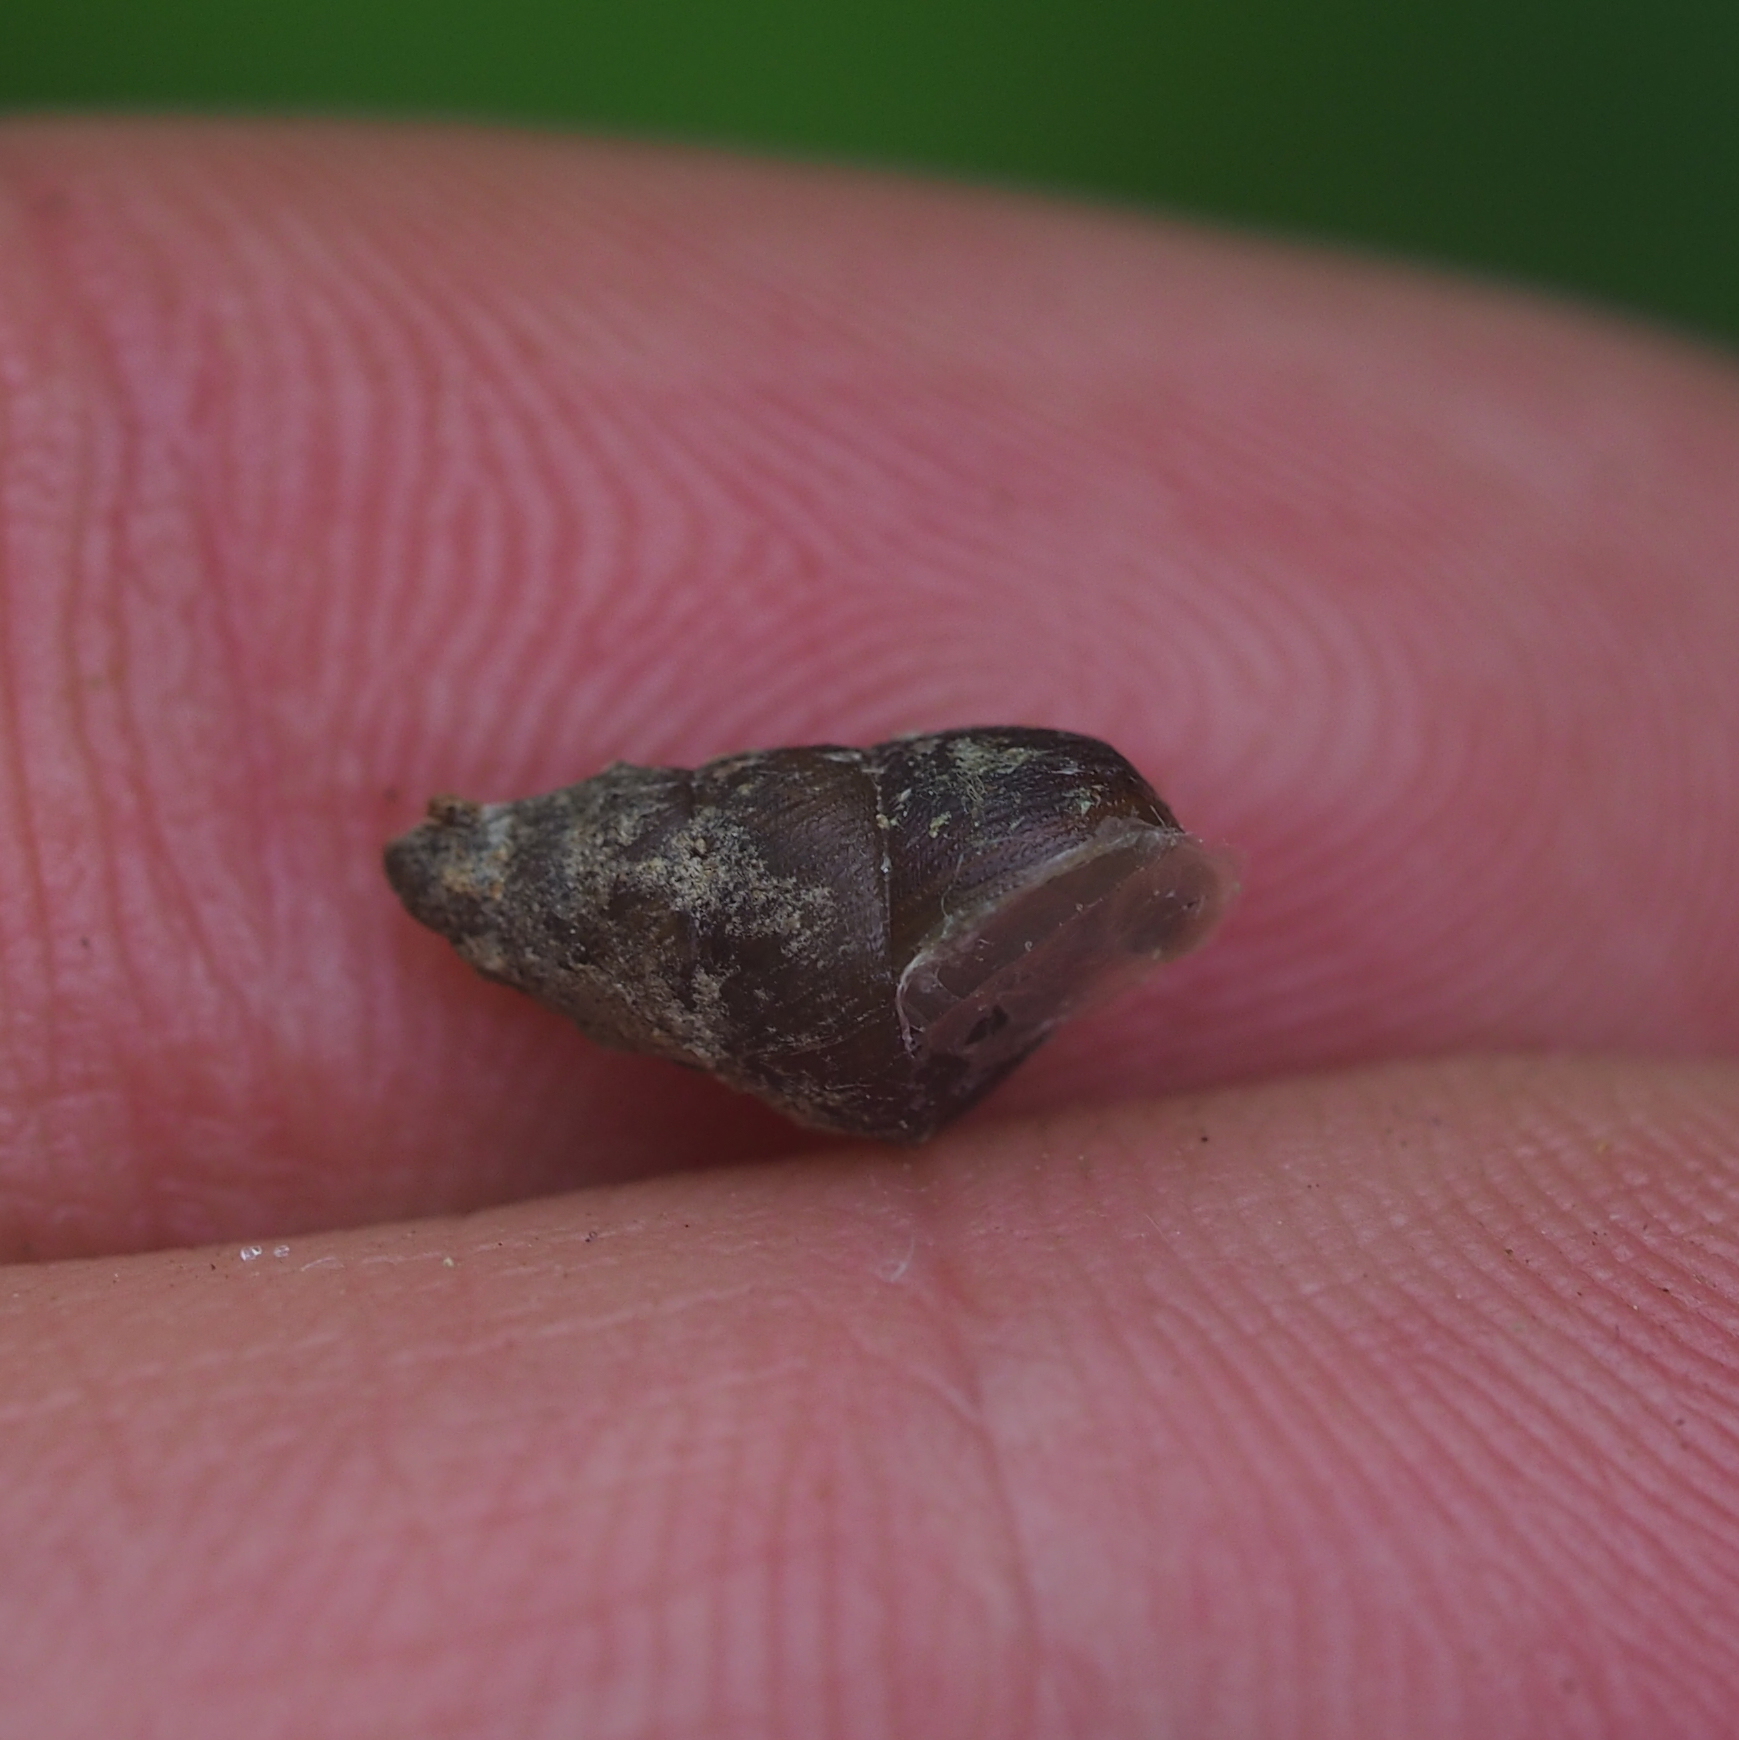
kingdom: Animalia
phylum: Mollusca
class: Gastropoda
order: Stylommatophora
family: Enidae
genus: Ena
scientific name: Ena montana
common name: Mountain bulin
